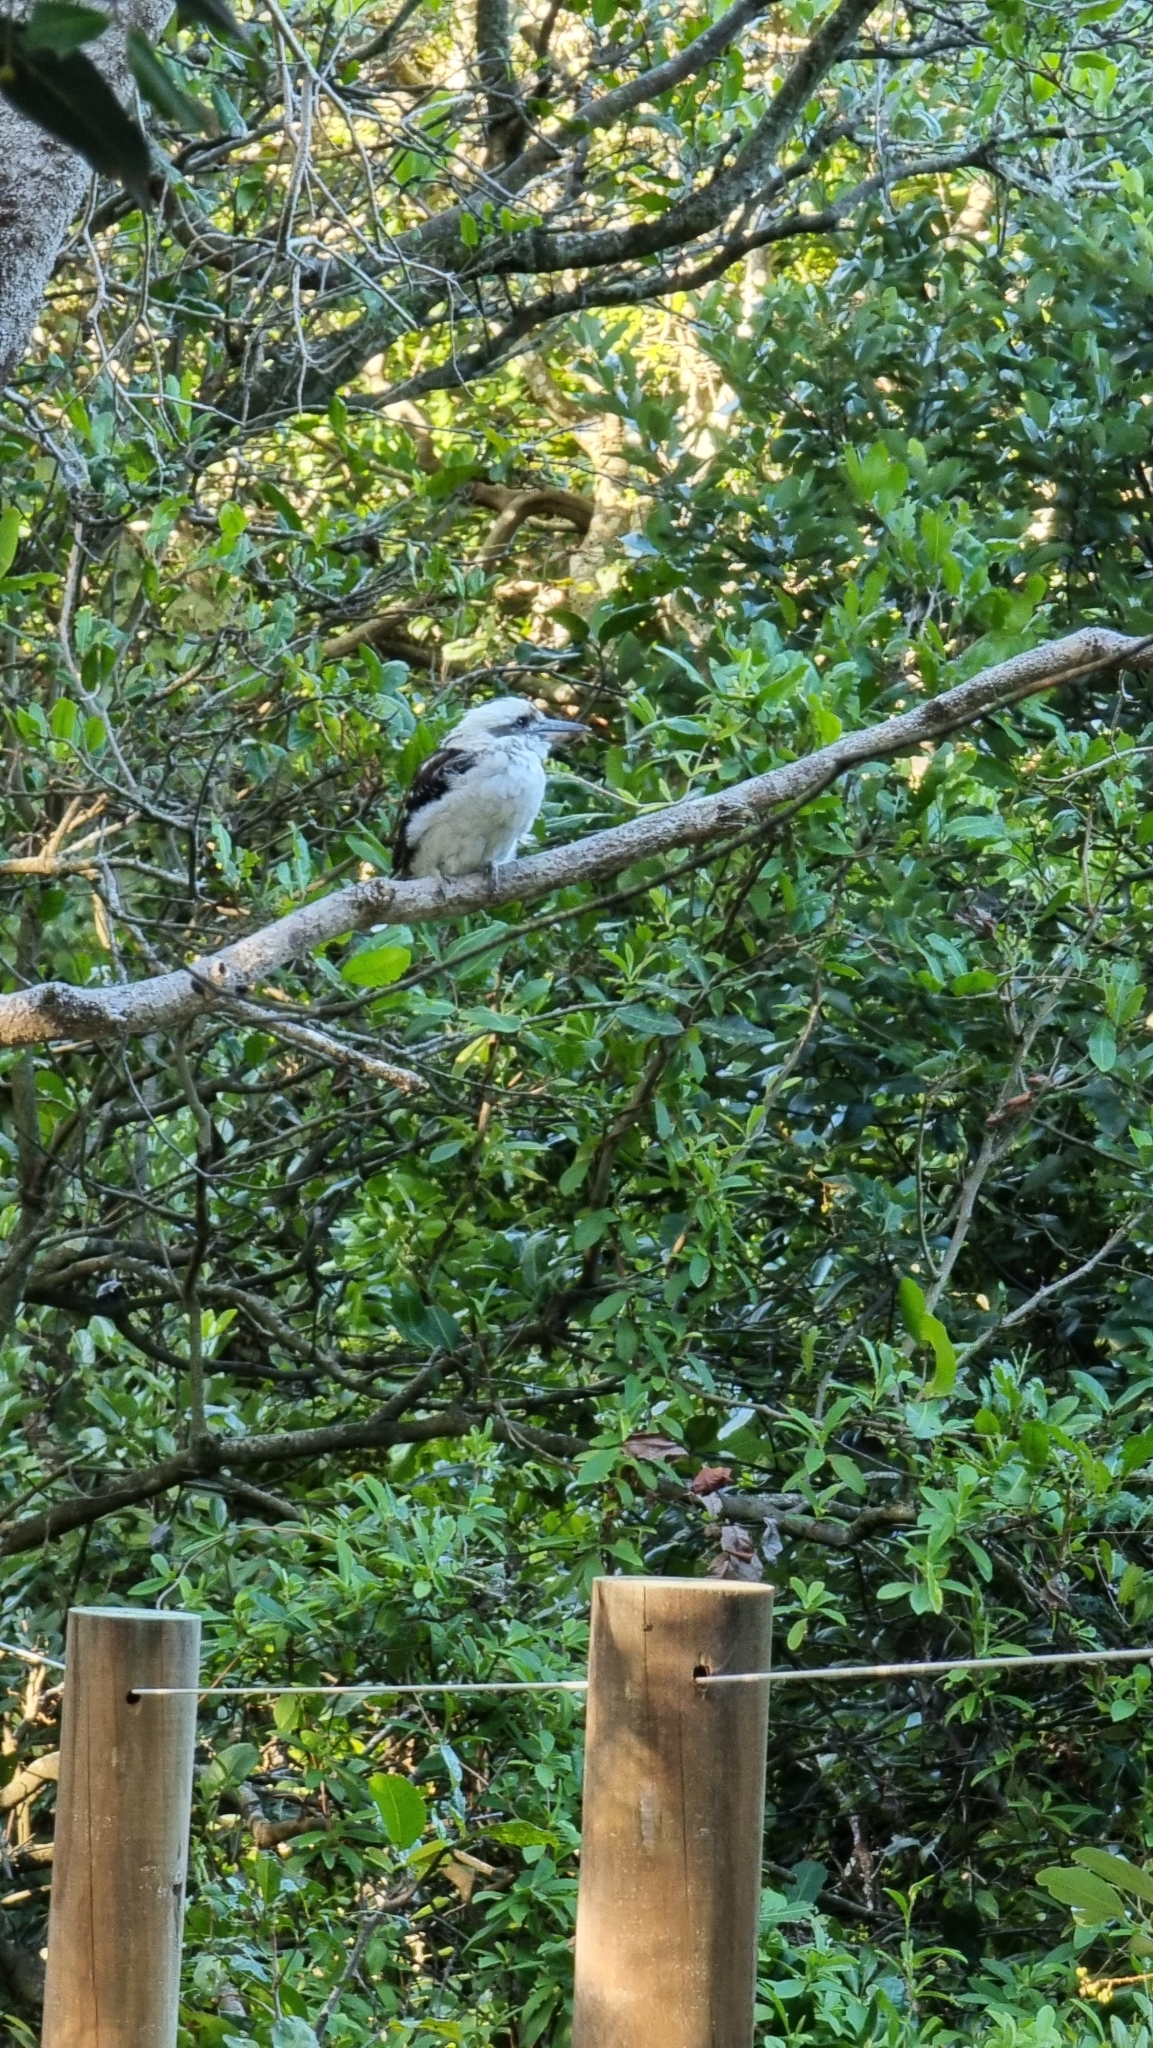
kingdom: Animalia
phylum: Chordata
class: Aves
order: Coraciiformes
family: Alcedinidae
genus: Dacelo
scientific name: Dacelo novaeguineae
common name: Laughing kookaburra
